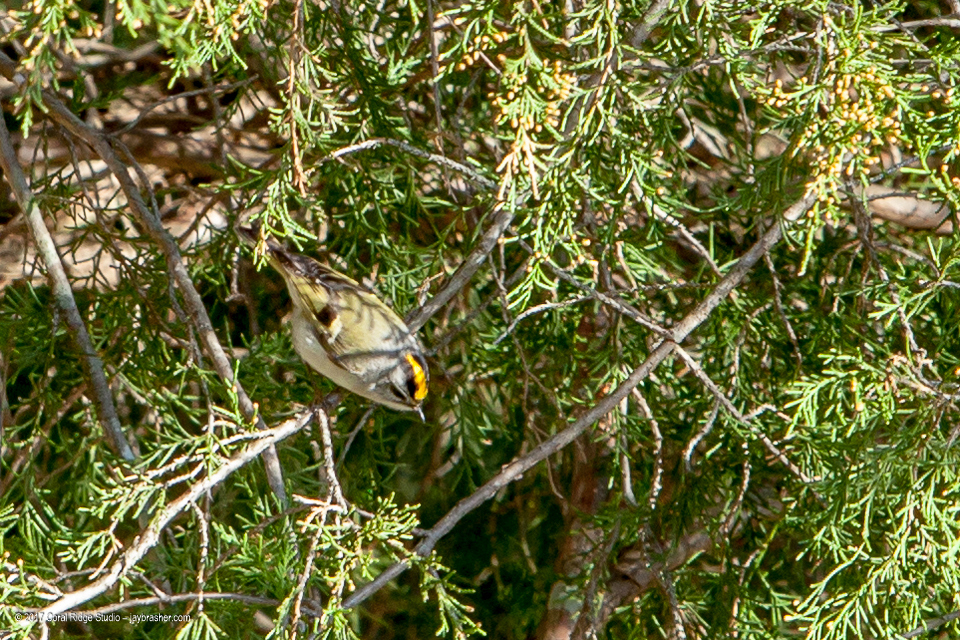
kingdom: Animalia
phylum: Chordata
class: Aves
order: Passeriformes
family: Regulidae
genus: Regulus
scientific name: Regulus satrapa
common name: Golden-crowned kinglet
